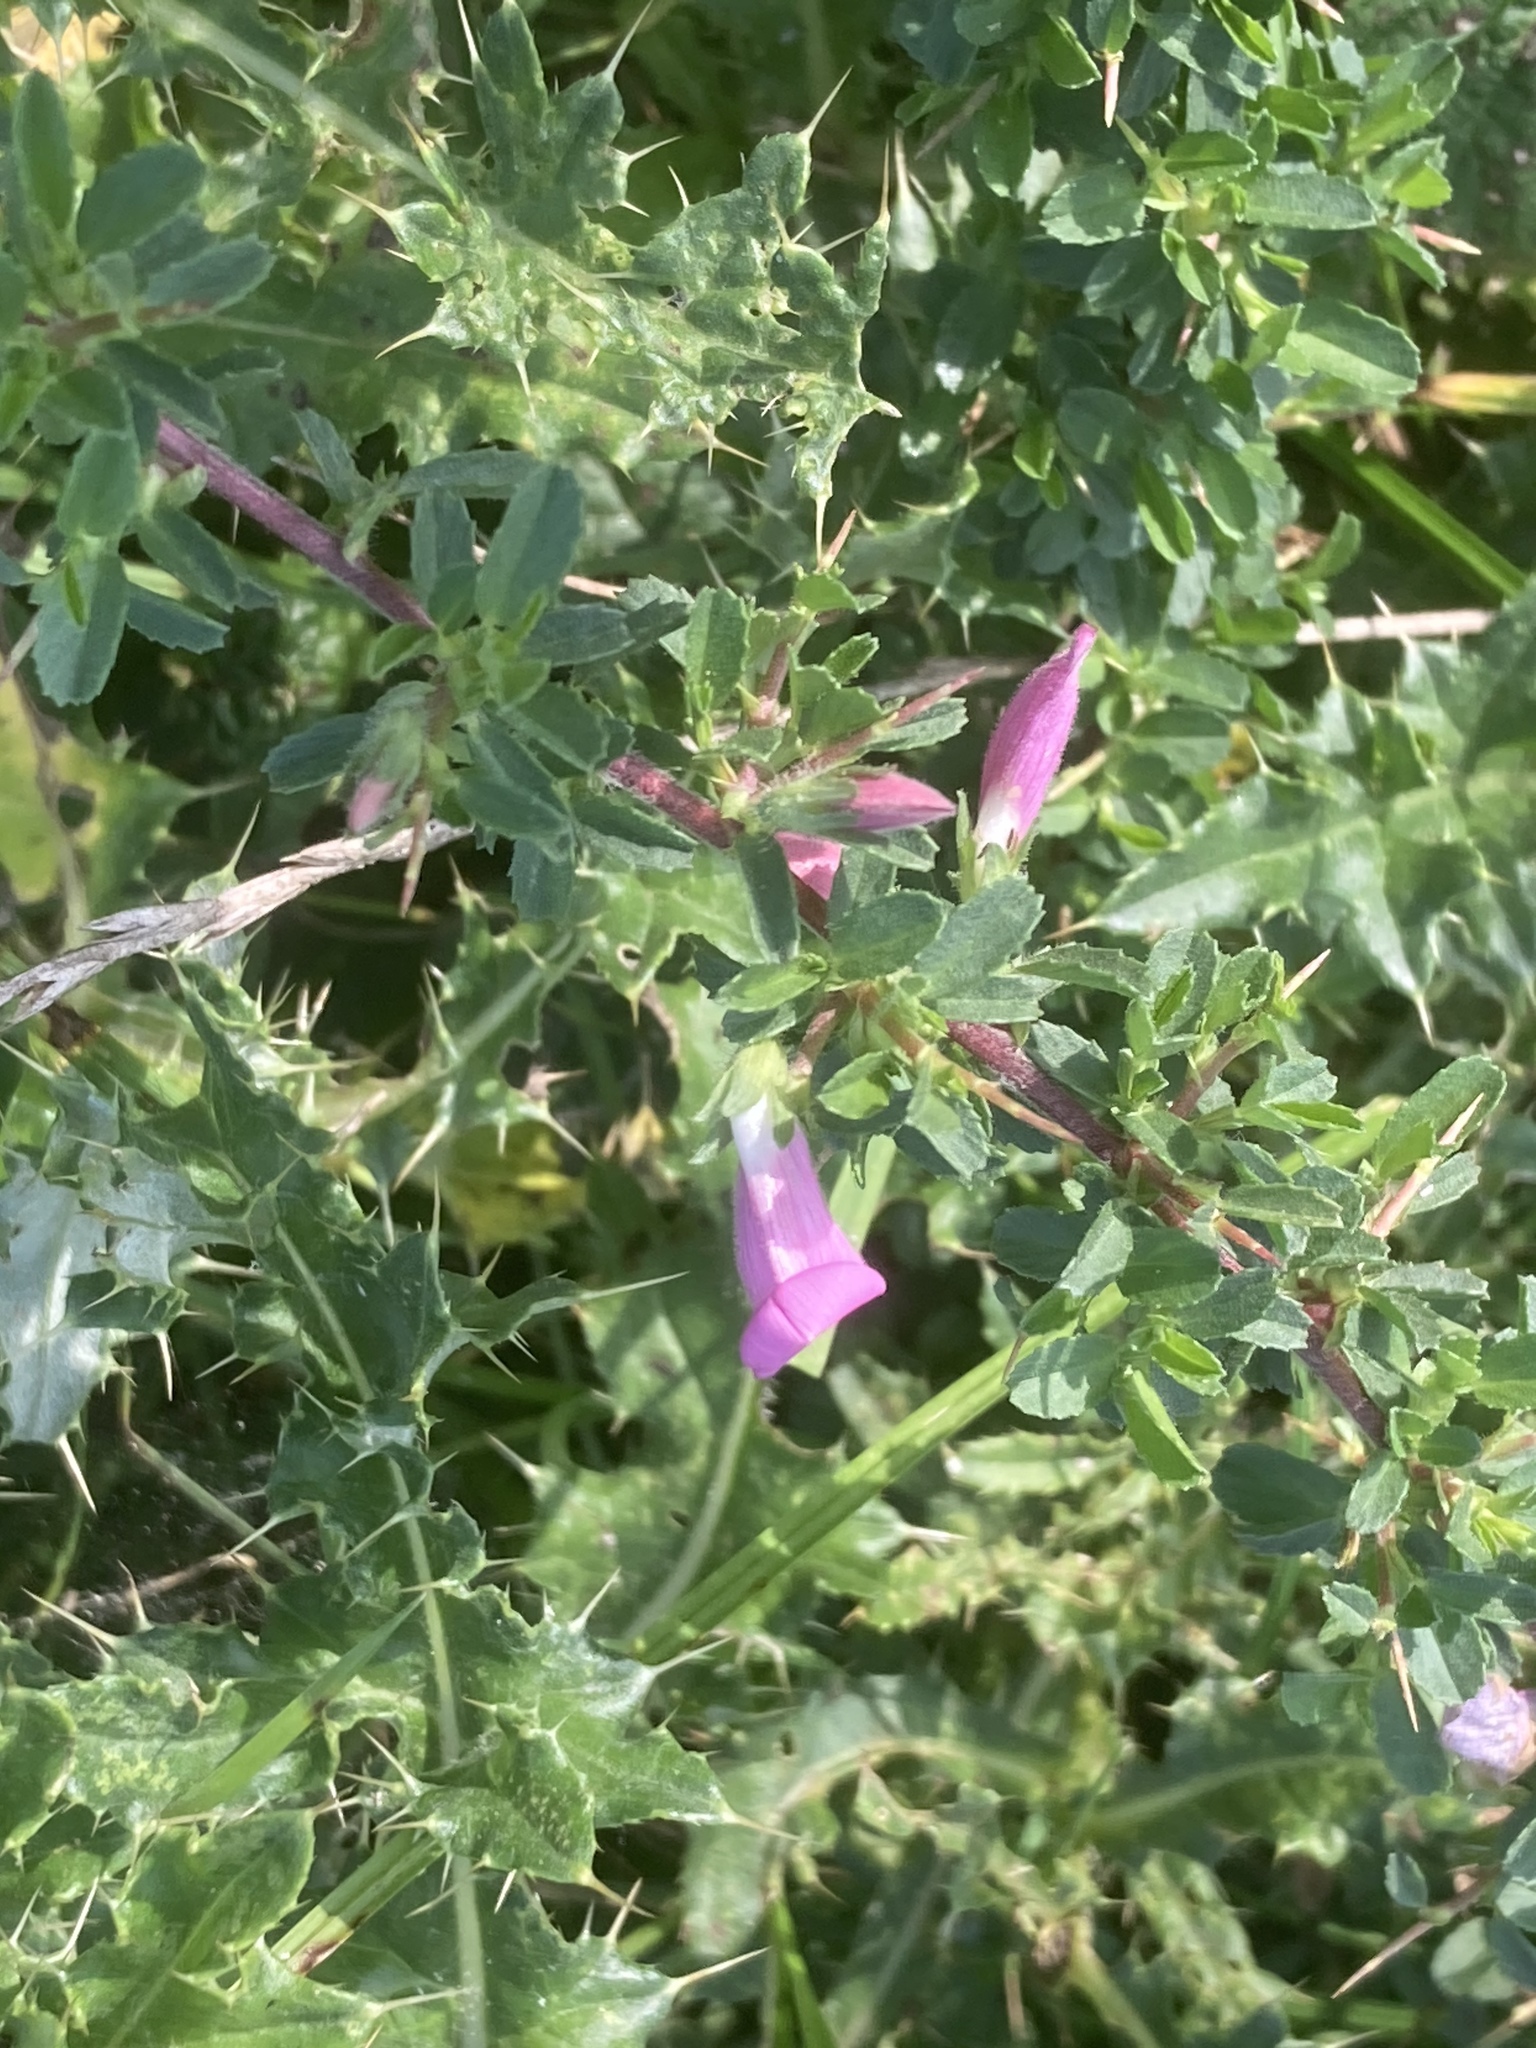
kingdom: Plantae
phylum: Tracheophyta
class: Magnoliopsida
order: Fabales
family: Fabaceae
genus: Ononis
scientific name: Ononis spinosa
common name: Spiny restharrow
